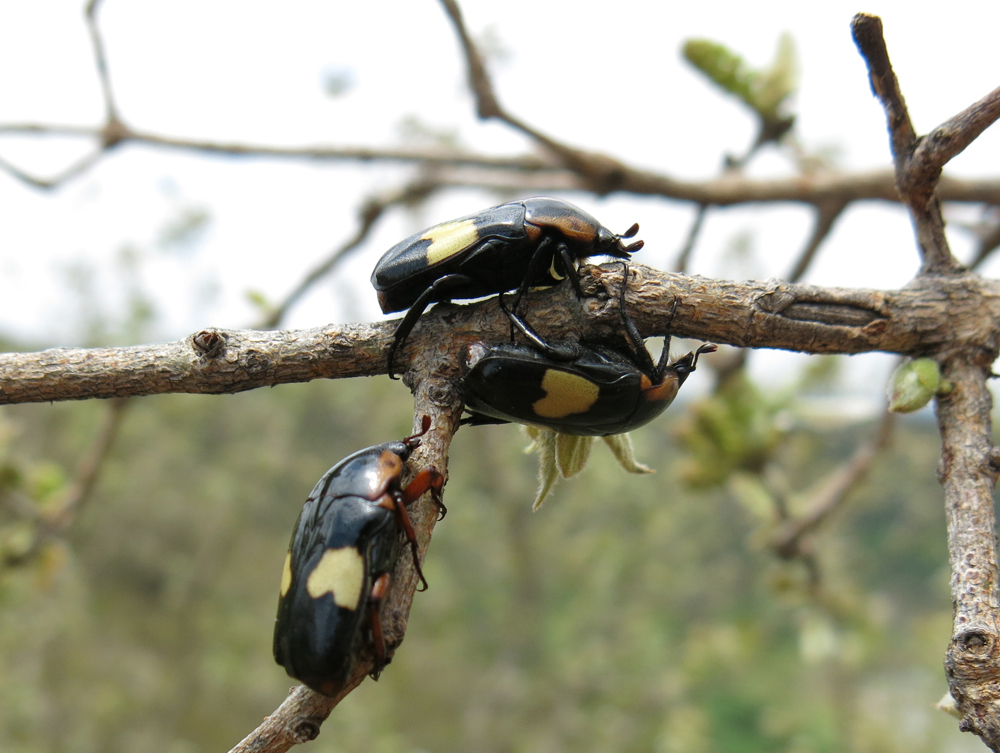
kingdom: Animalia
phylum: Arthropoda
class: Insecta
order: Coleoptera
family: Scarabaeidae
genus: Pedinorrhina
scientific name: Pedinorrhina
